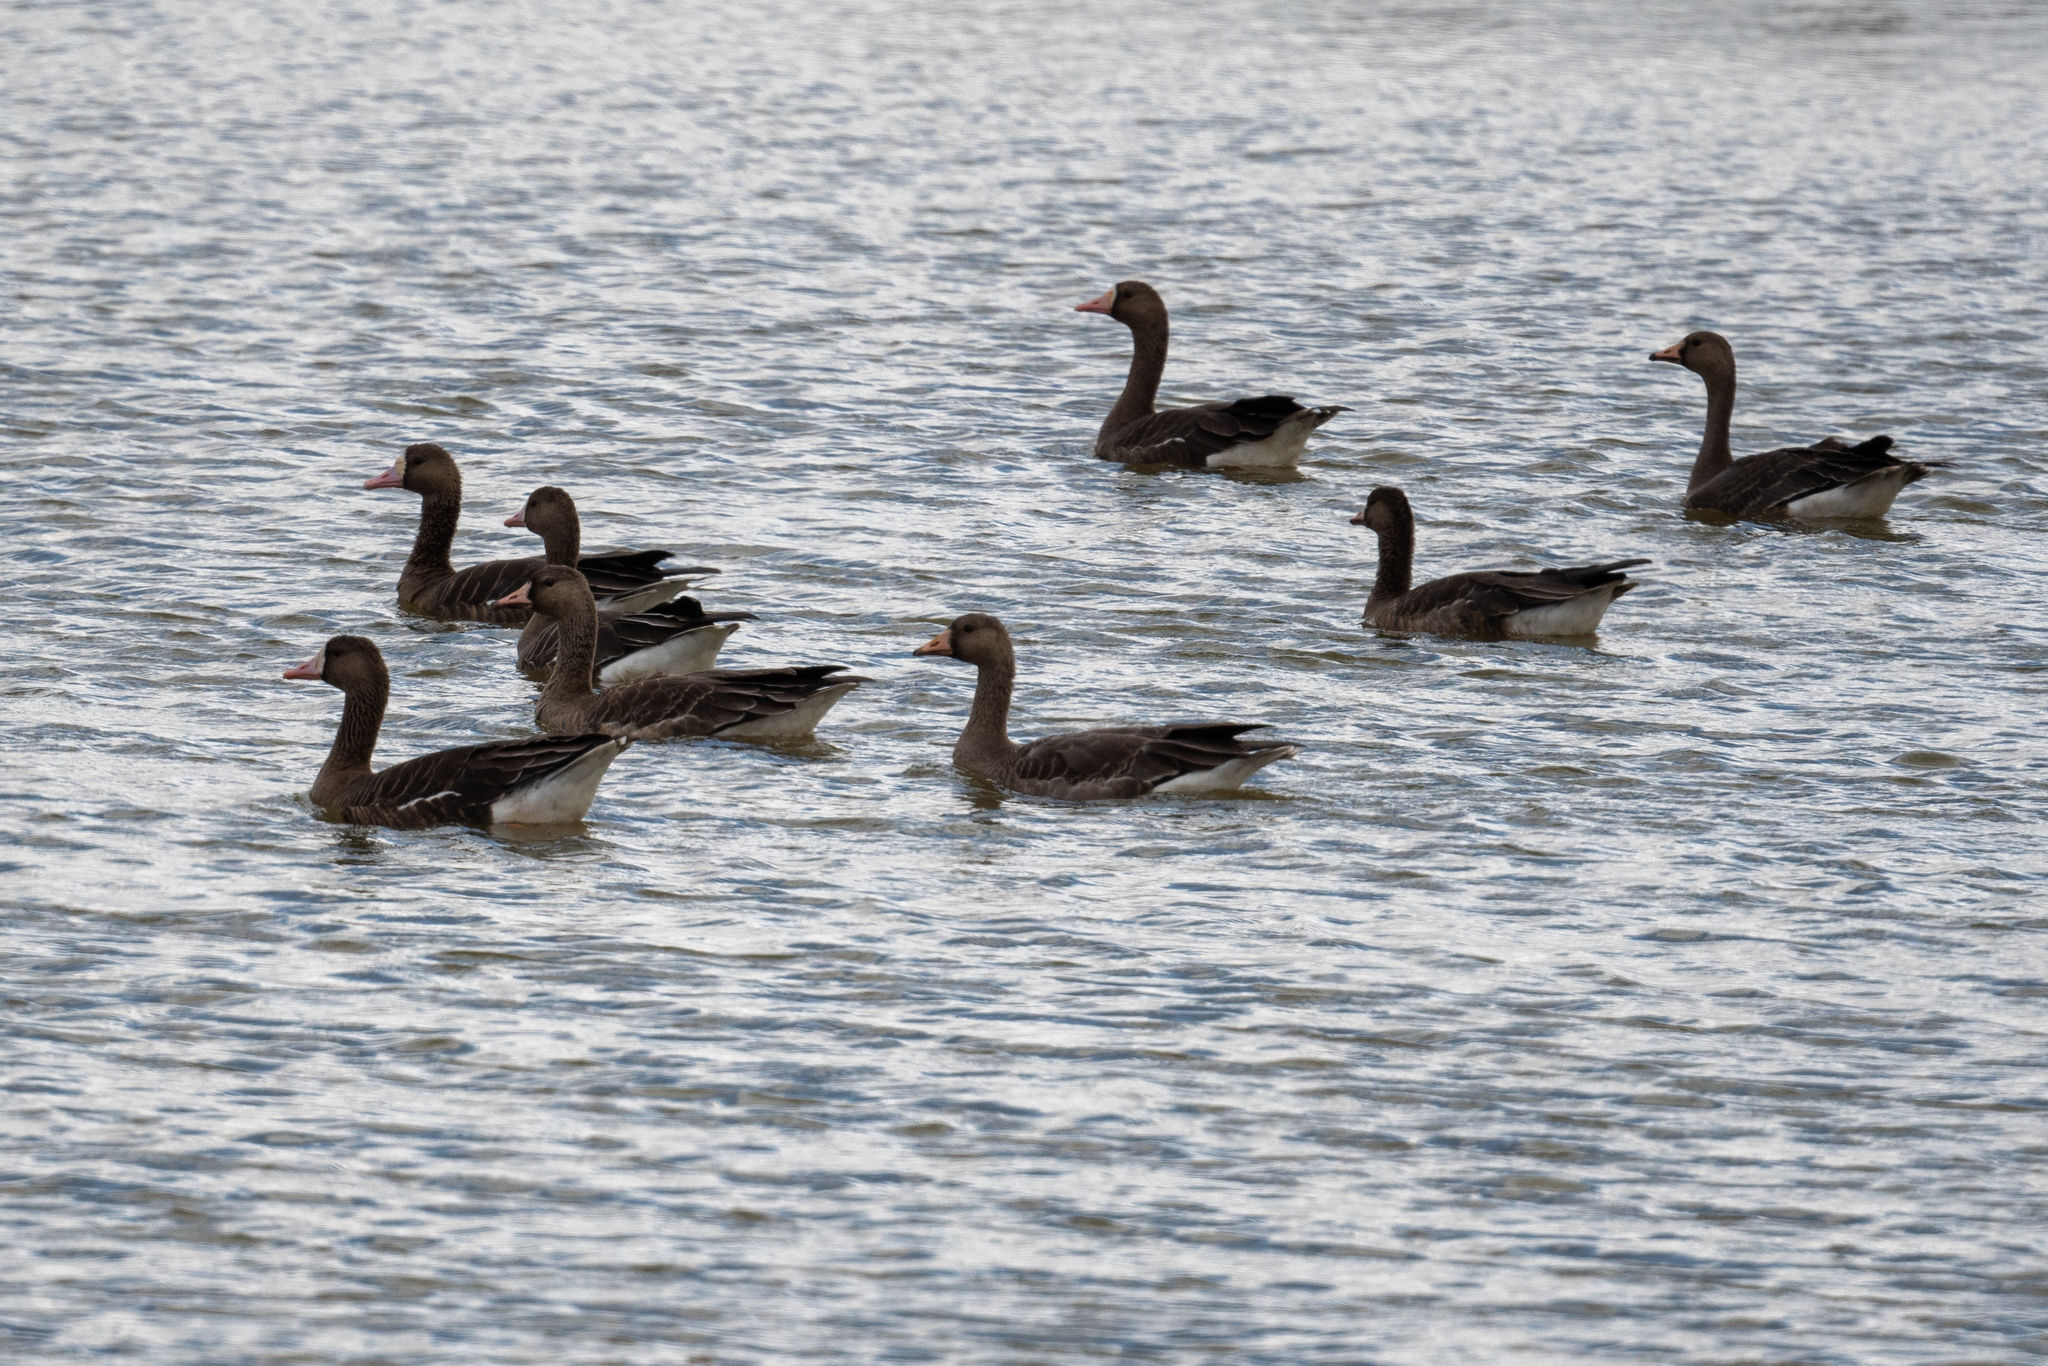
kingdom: Animalia
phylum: Chordata
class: Aves
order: Anseriformes
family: Anatidae
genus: Anser
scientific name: Anser albifrons
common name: Greater white-fronted goose
